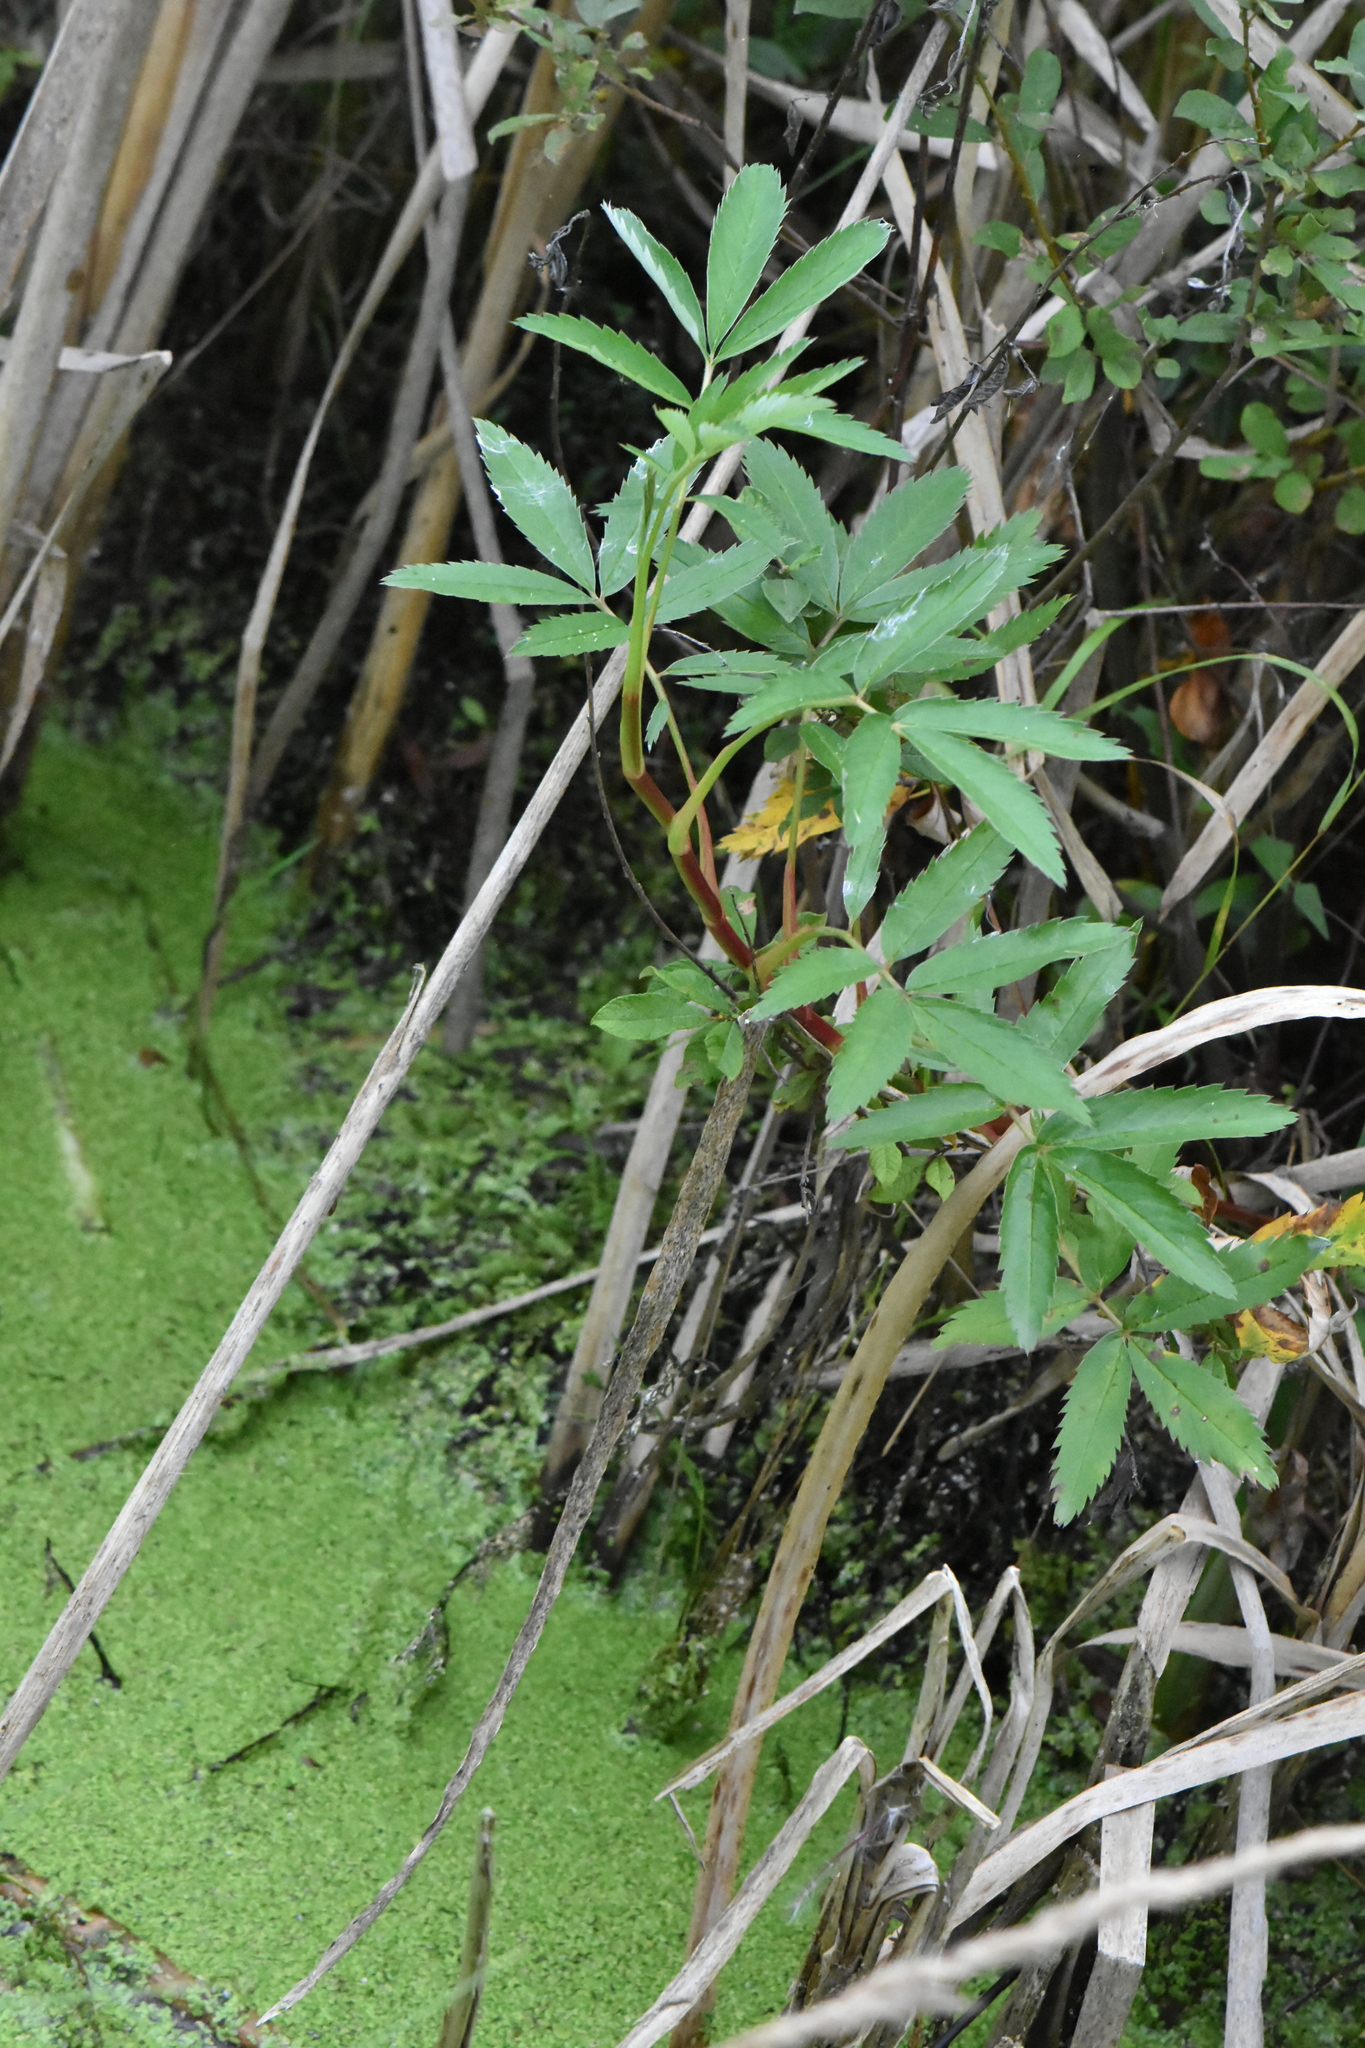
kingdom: Plantae
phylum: Tracheophyta
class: Magnoliopsida
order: Rosales
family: Rosaceae
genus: Comarum
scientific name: Comarum palustre
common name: Marsh cinquefoil
